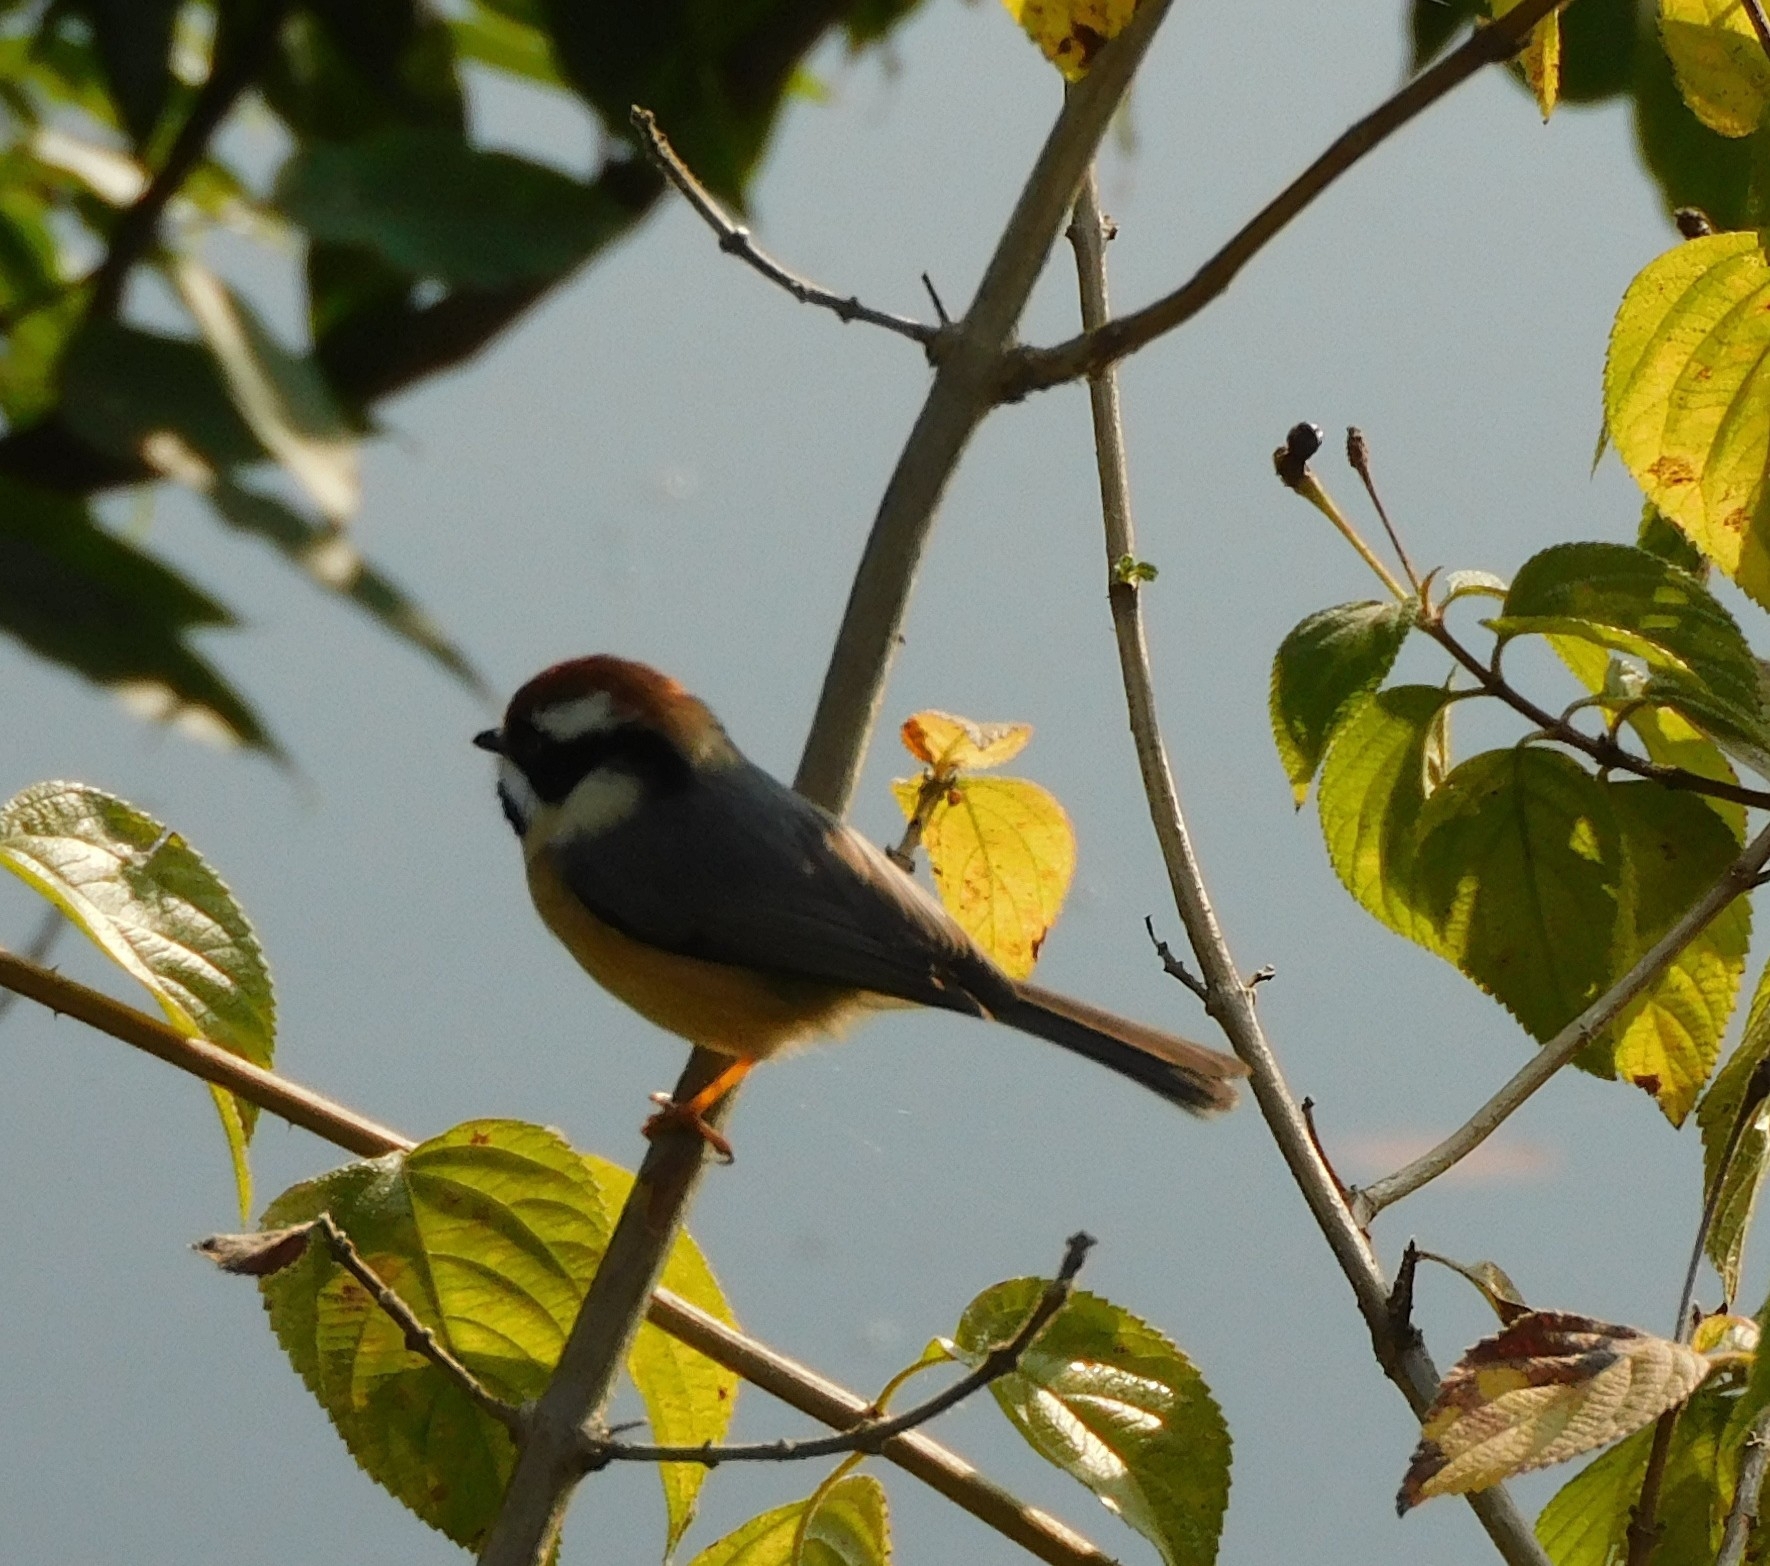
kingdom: Animalia
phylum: Chordata
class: Aves
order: Passeriformes
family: Aegithalidae
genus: Aegithalos
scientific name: Aegithalos concinnus
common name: Black-throated bushtit
